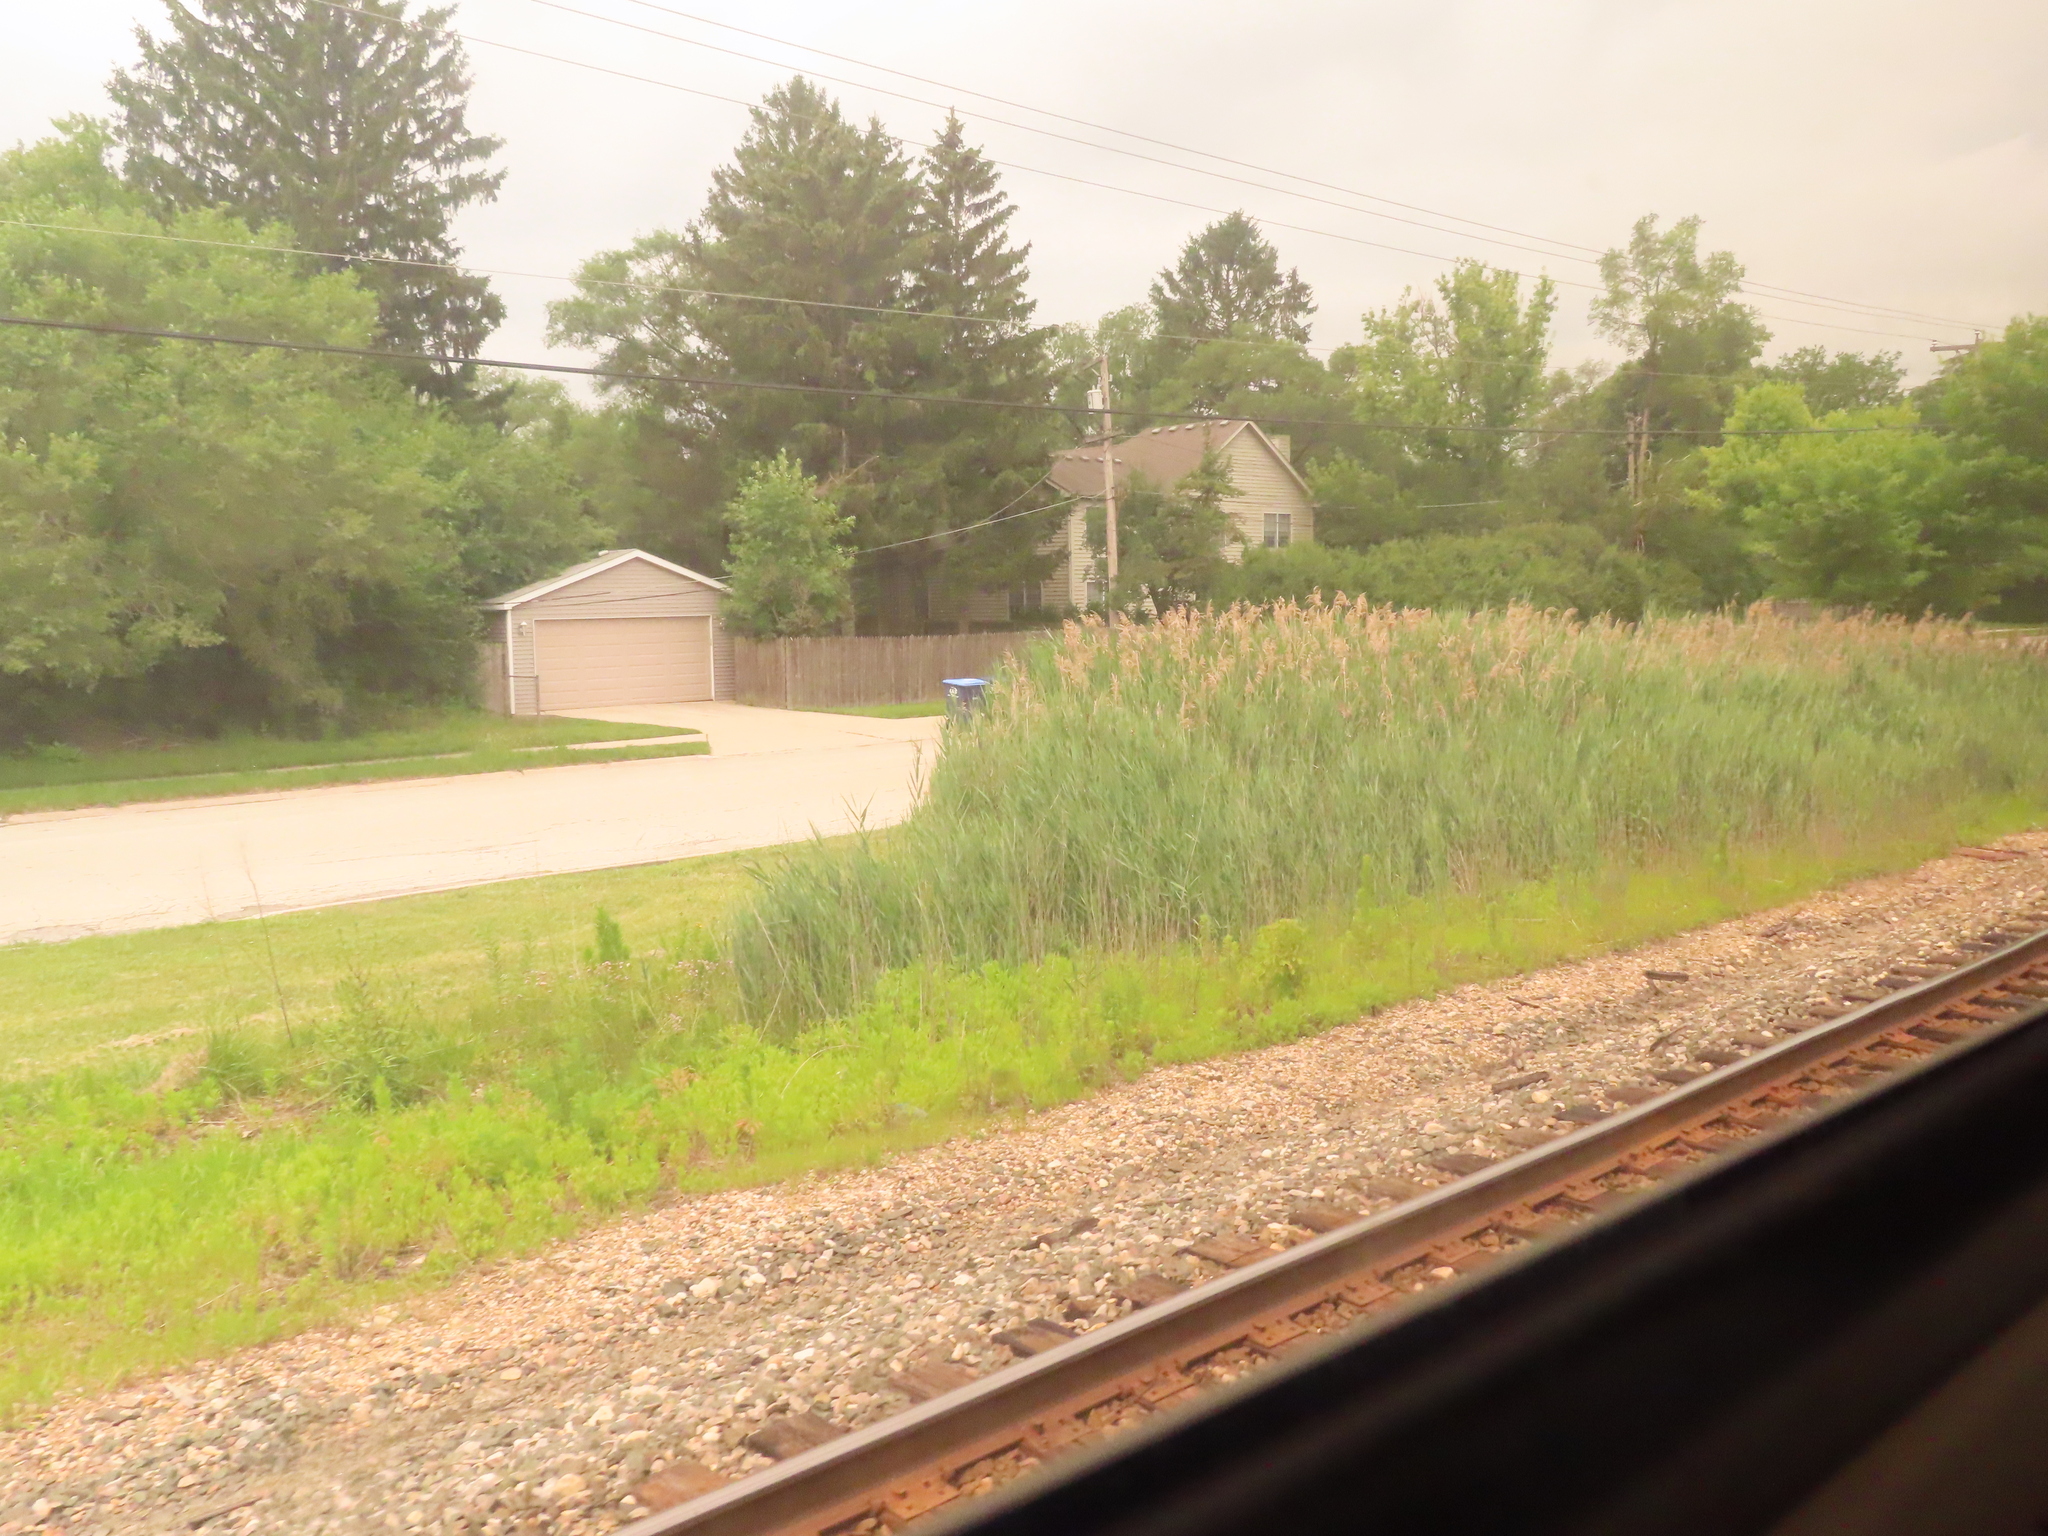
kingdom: Plantae
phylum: Tracheophyta
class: Liliopsida
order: Poales
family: Poaceae
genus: Phragmites
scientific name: Phragmites australis
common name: Common reed
